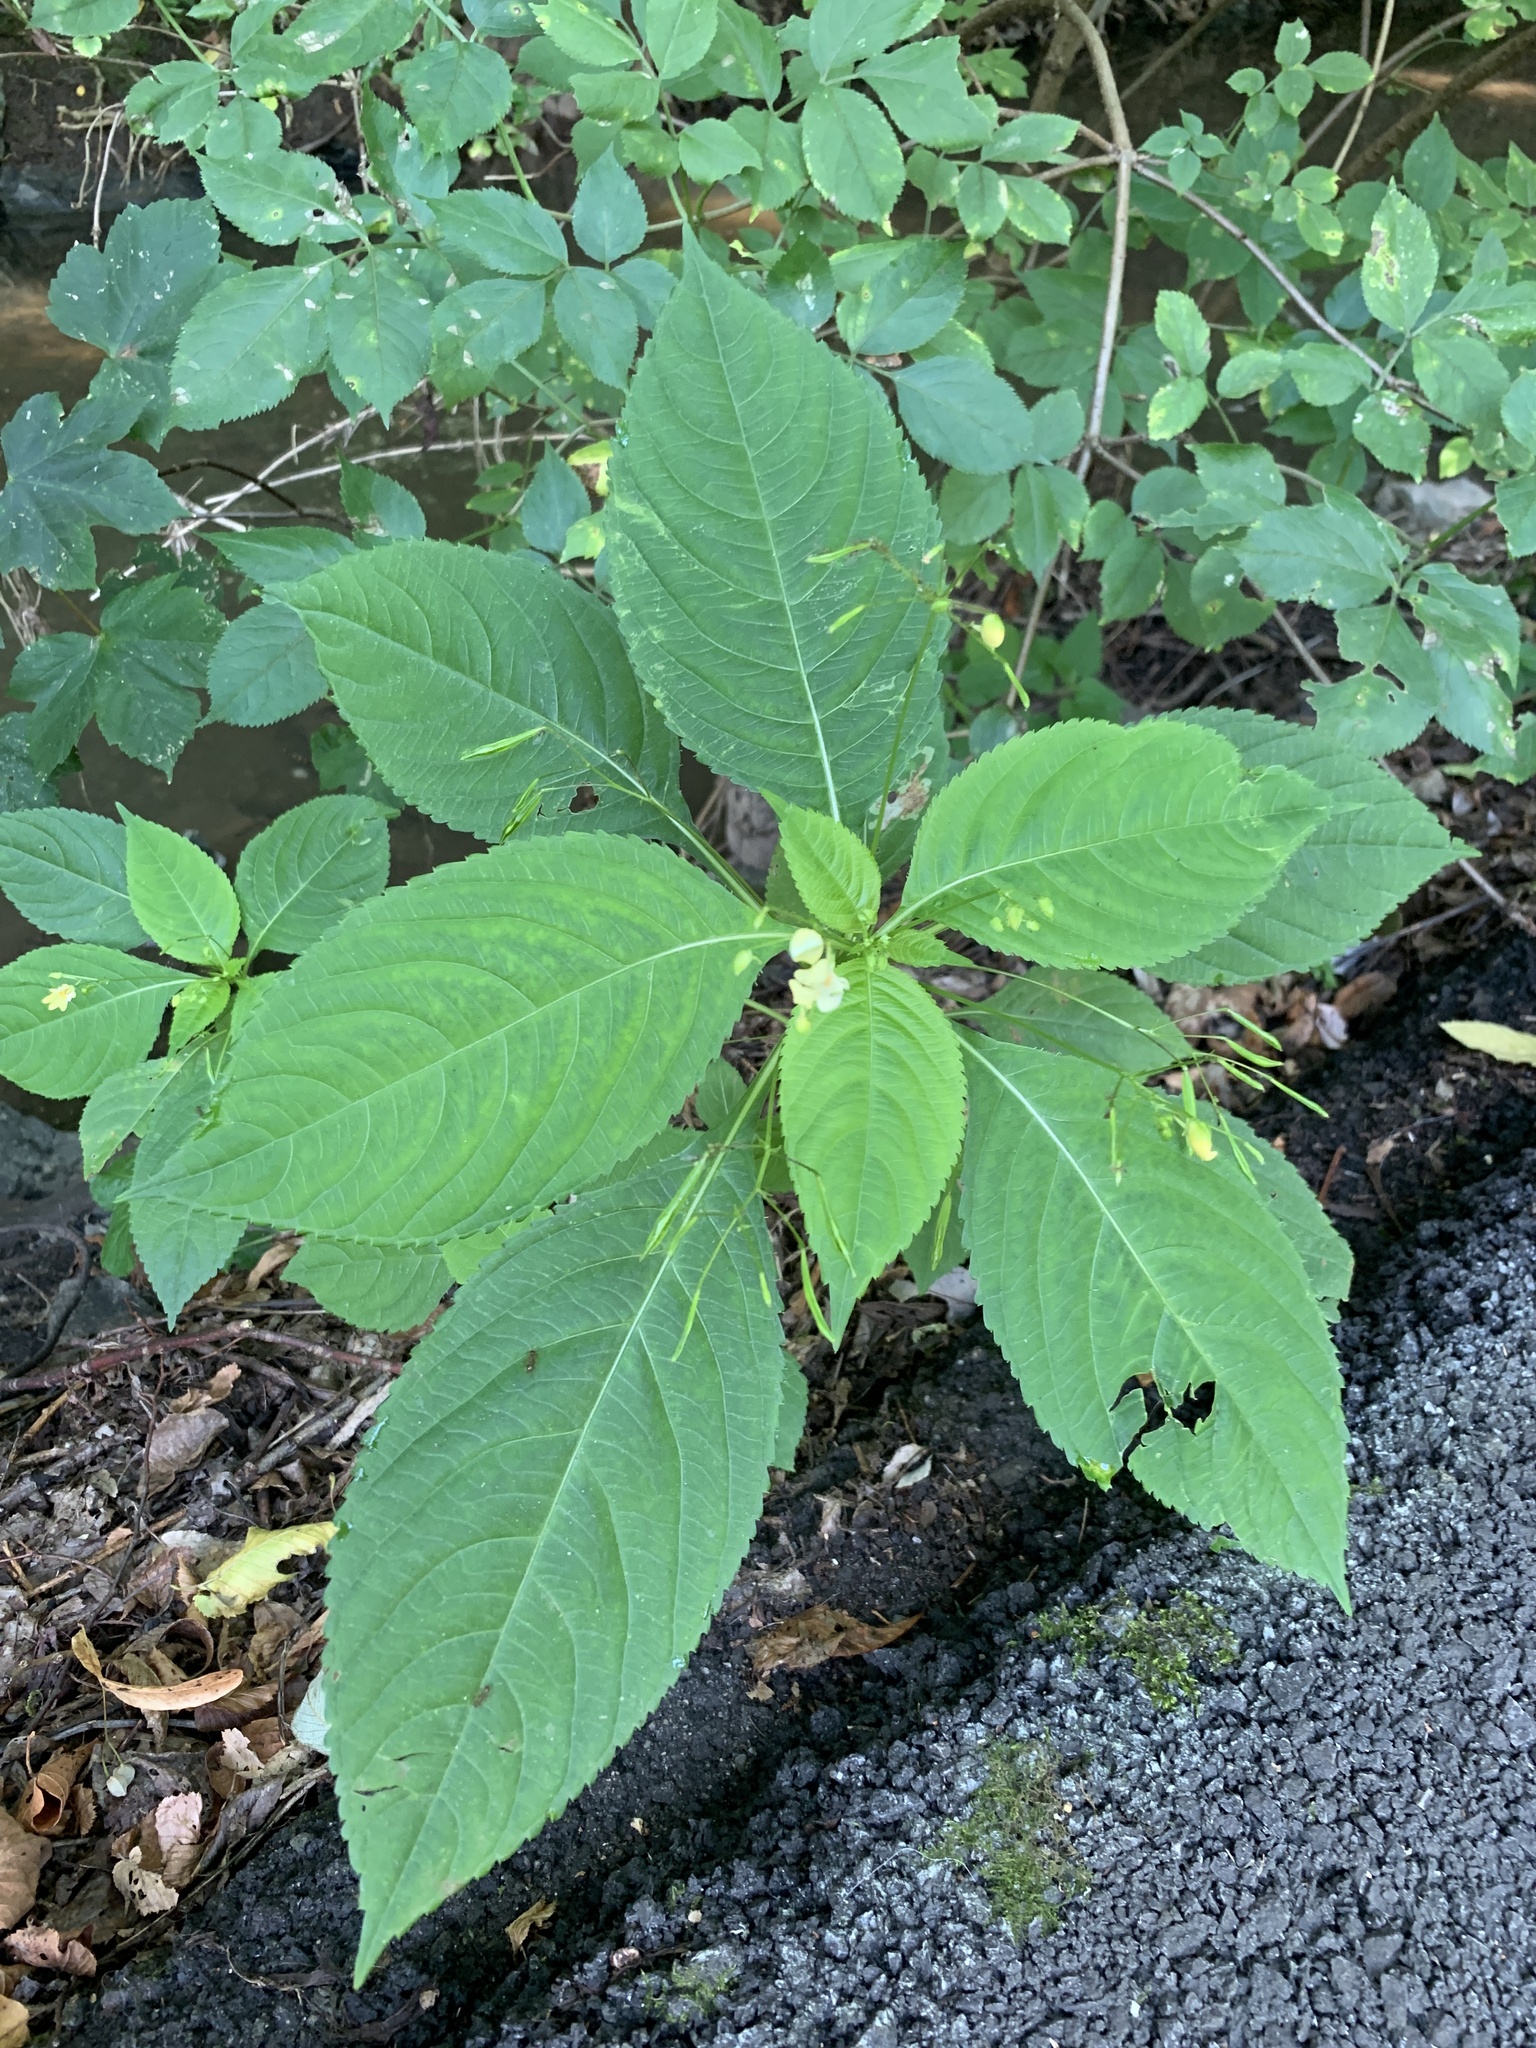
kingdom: Plantae
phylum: Tracheophyta
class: Magnoliopsida
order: Ericales
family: Balsaminaceae
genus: Impatiens
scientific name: Impatiens parviflora
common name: Small balsam
